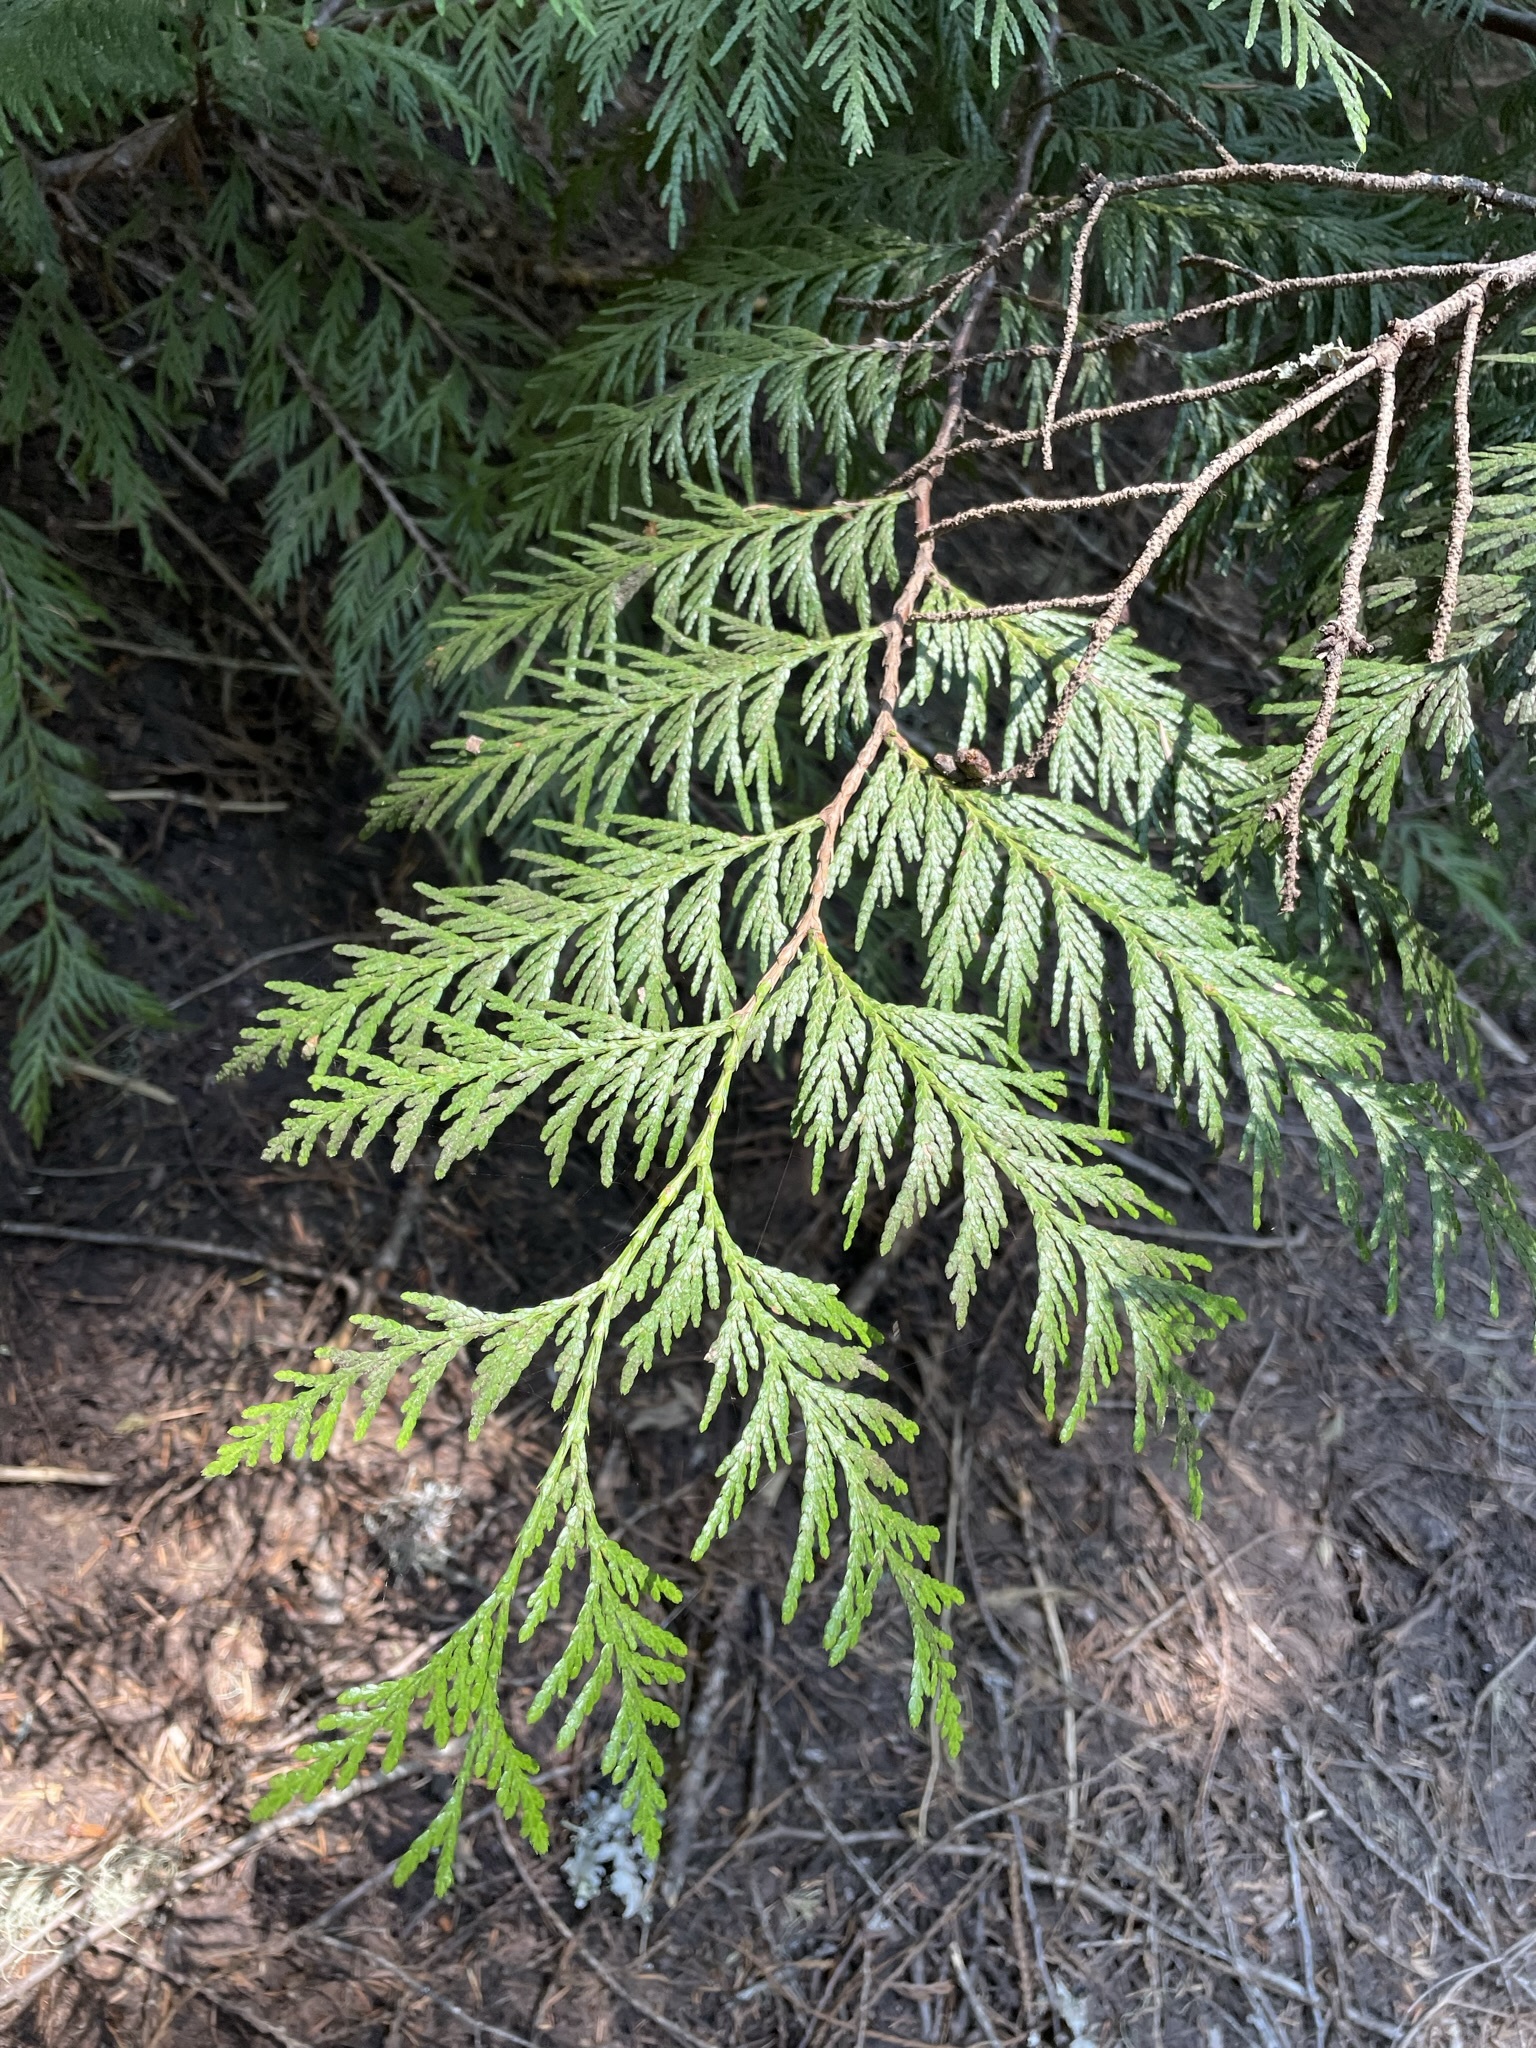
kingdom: Plantae
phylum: Tracheophyta
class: Pinopsida
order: Pinales
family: Cupressaceae
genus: Thuja
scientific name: Thuja plicata
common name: Western red-cedar
